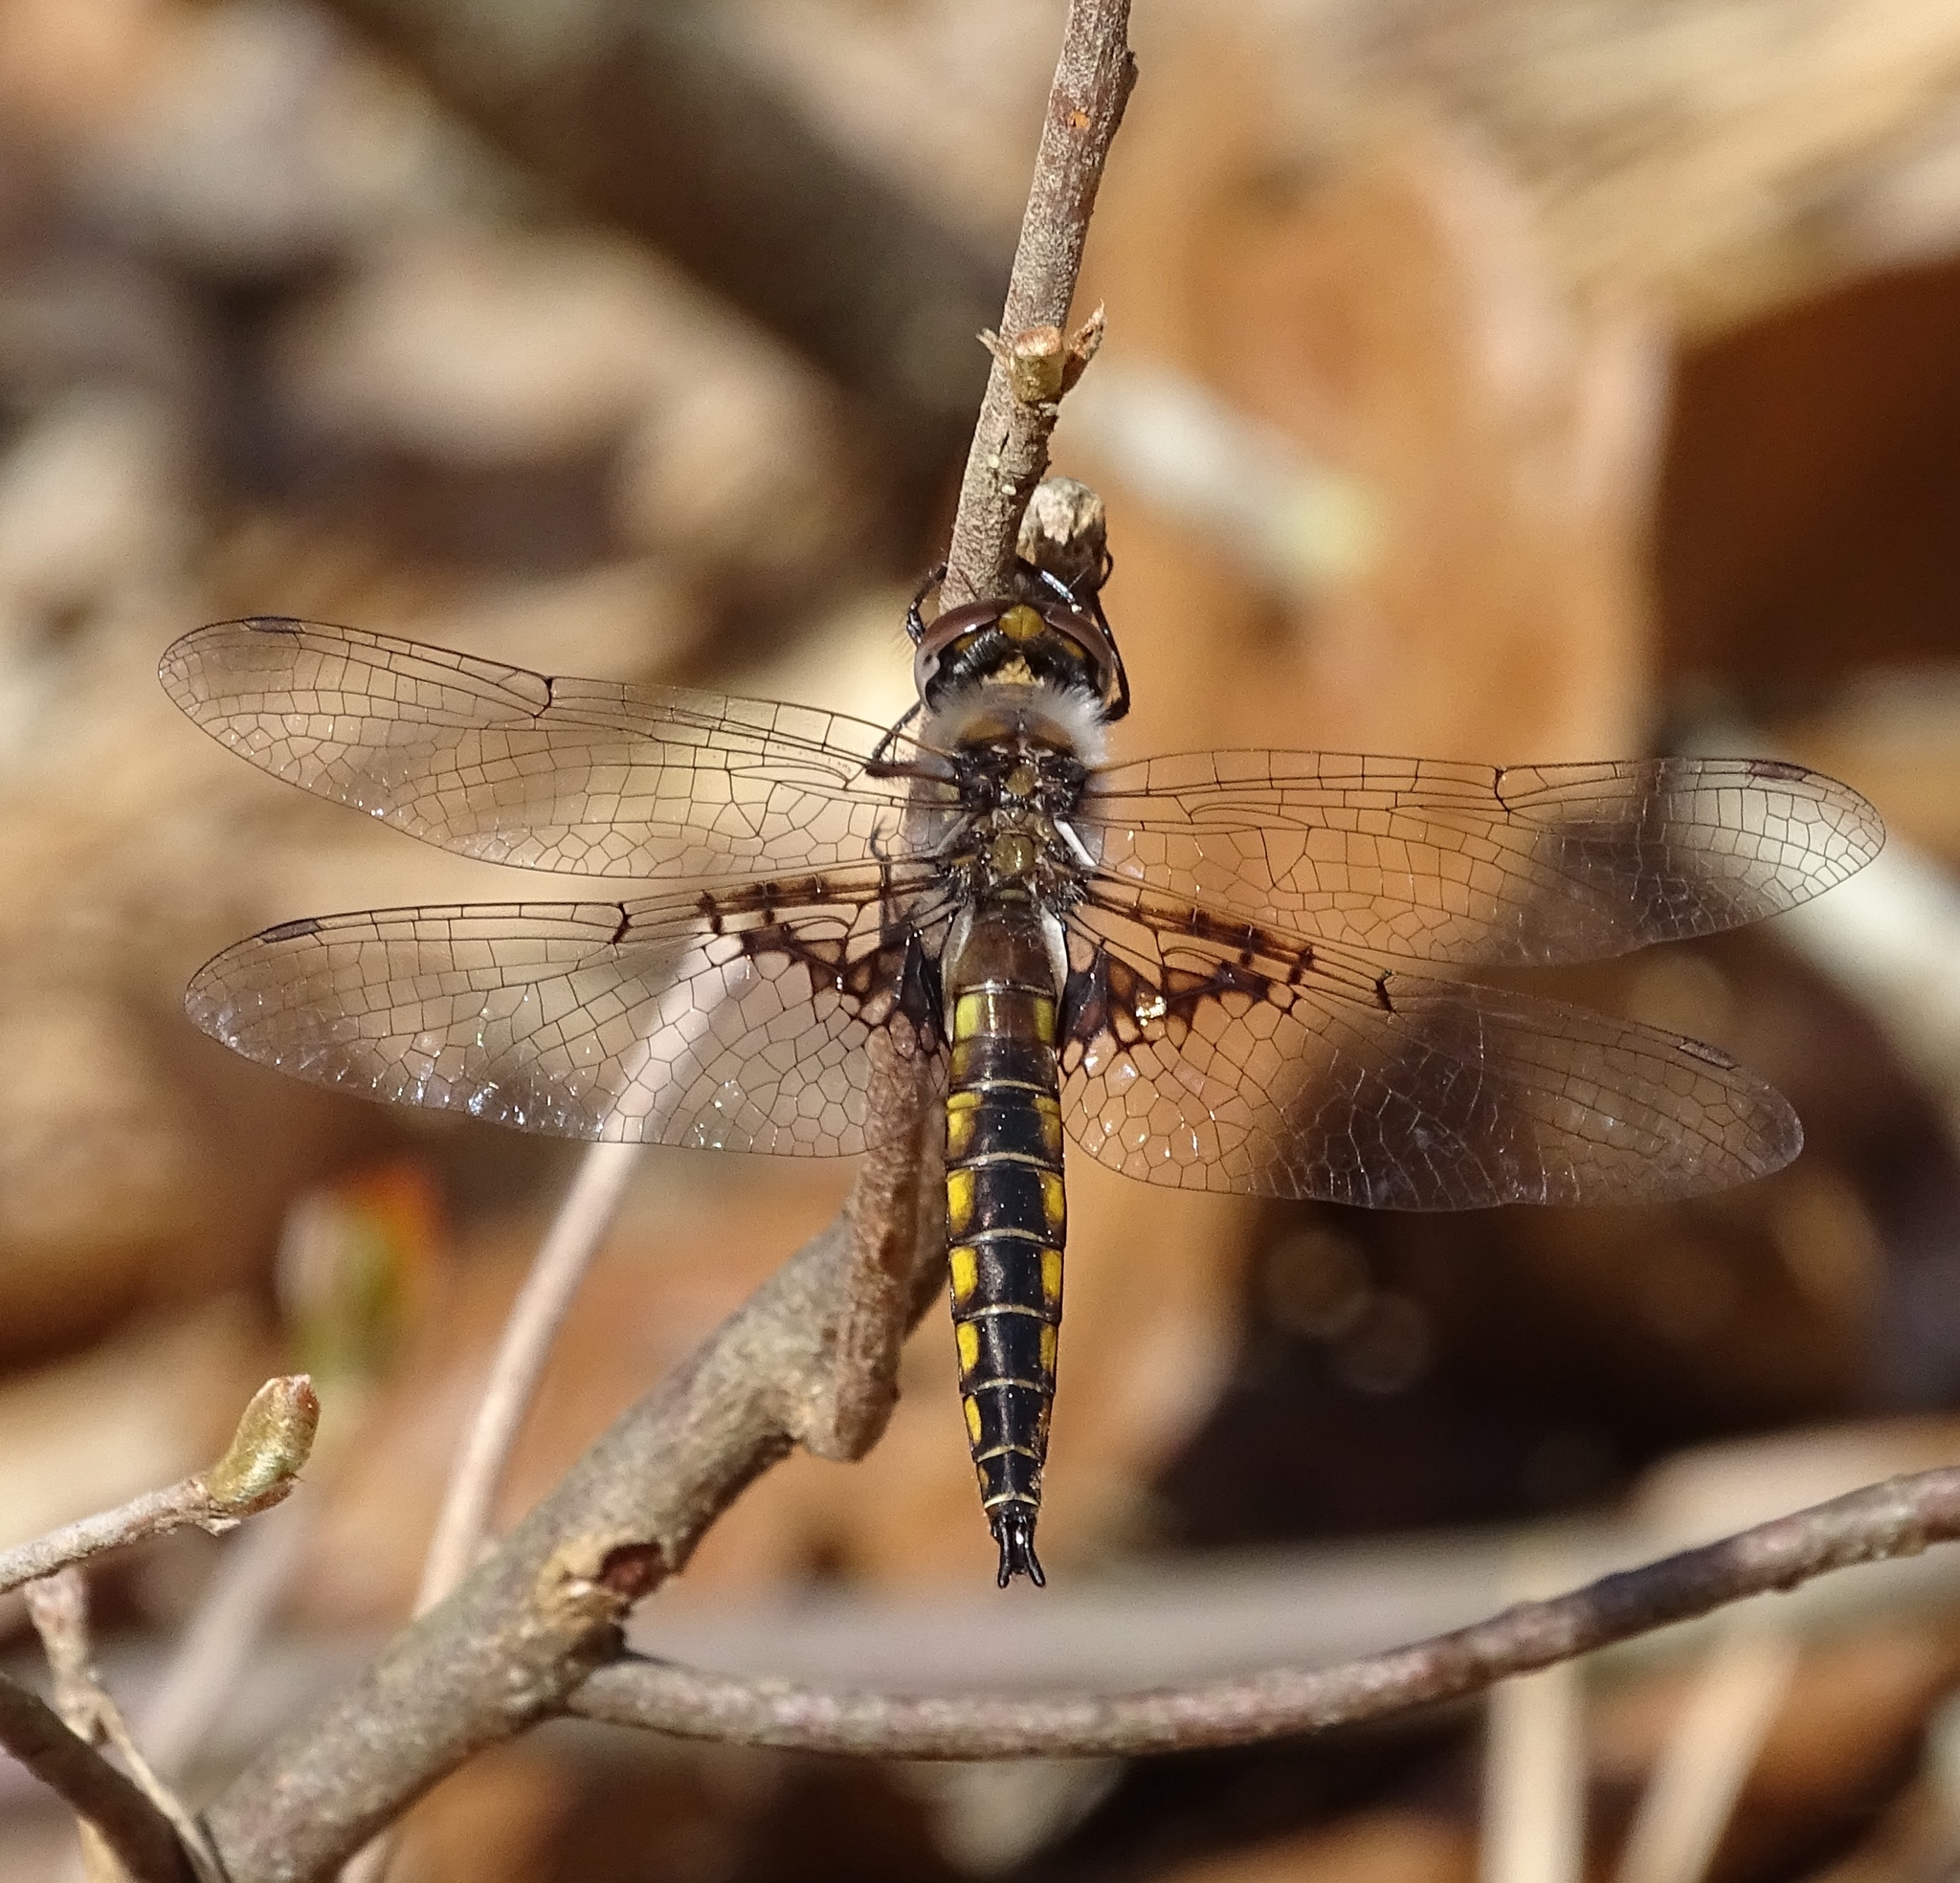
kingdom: Animalia
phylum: Arthropoda
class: Insecta
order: Odonata
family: Corduliidae
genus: Epitheca
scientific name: Epitheca semiaquea
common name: Mantled baskettail
